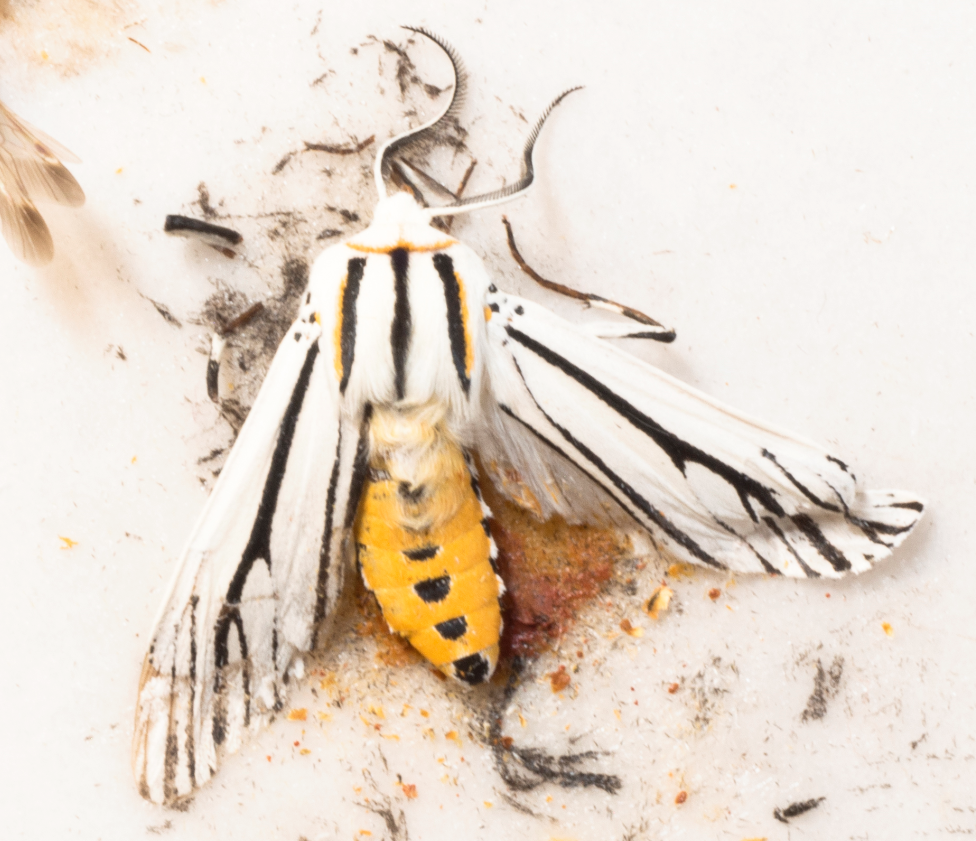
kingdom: Animalia
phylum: Arthropoda
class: Insecta
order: Lepidoptera
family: Erebidae
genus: Ectypia
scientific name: Ectypia clio
